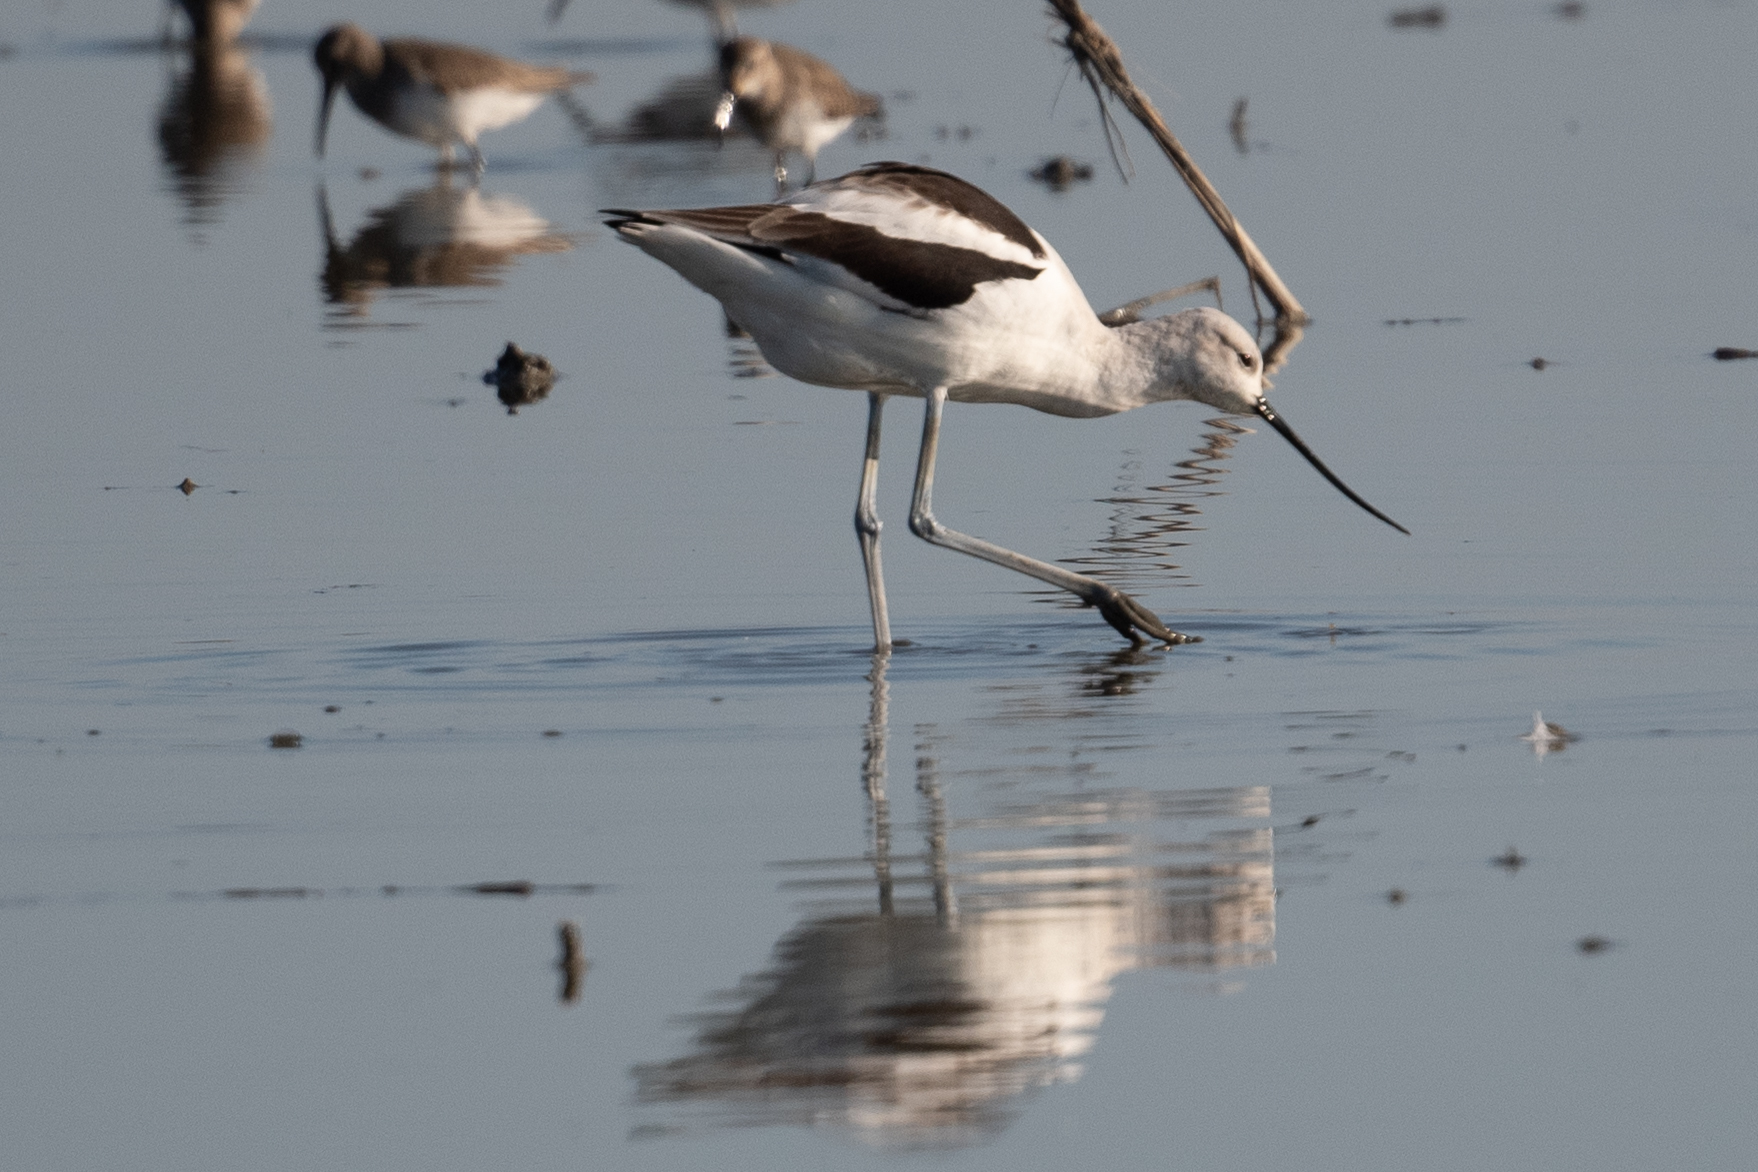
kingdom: Animalia
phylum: Chordata
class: Aves
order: Charadriiformes
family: Recurvirostridae
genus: Recurvirostra
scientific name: Recurvirostra americana
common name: American avocet
